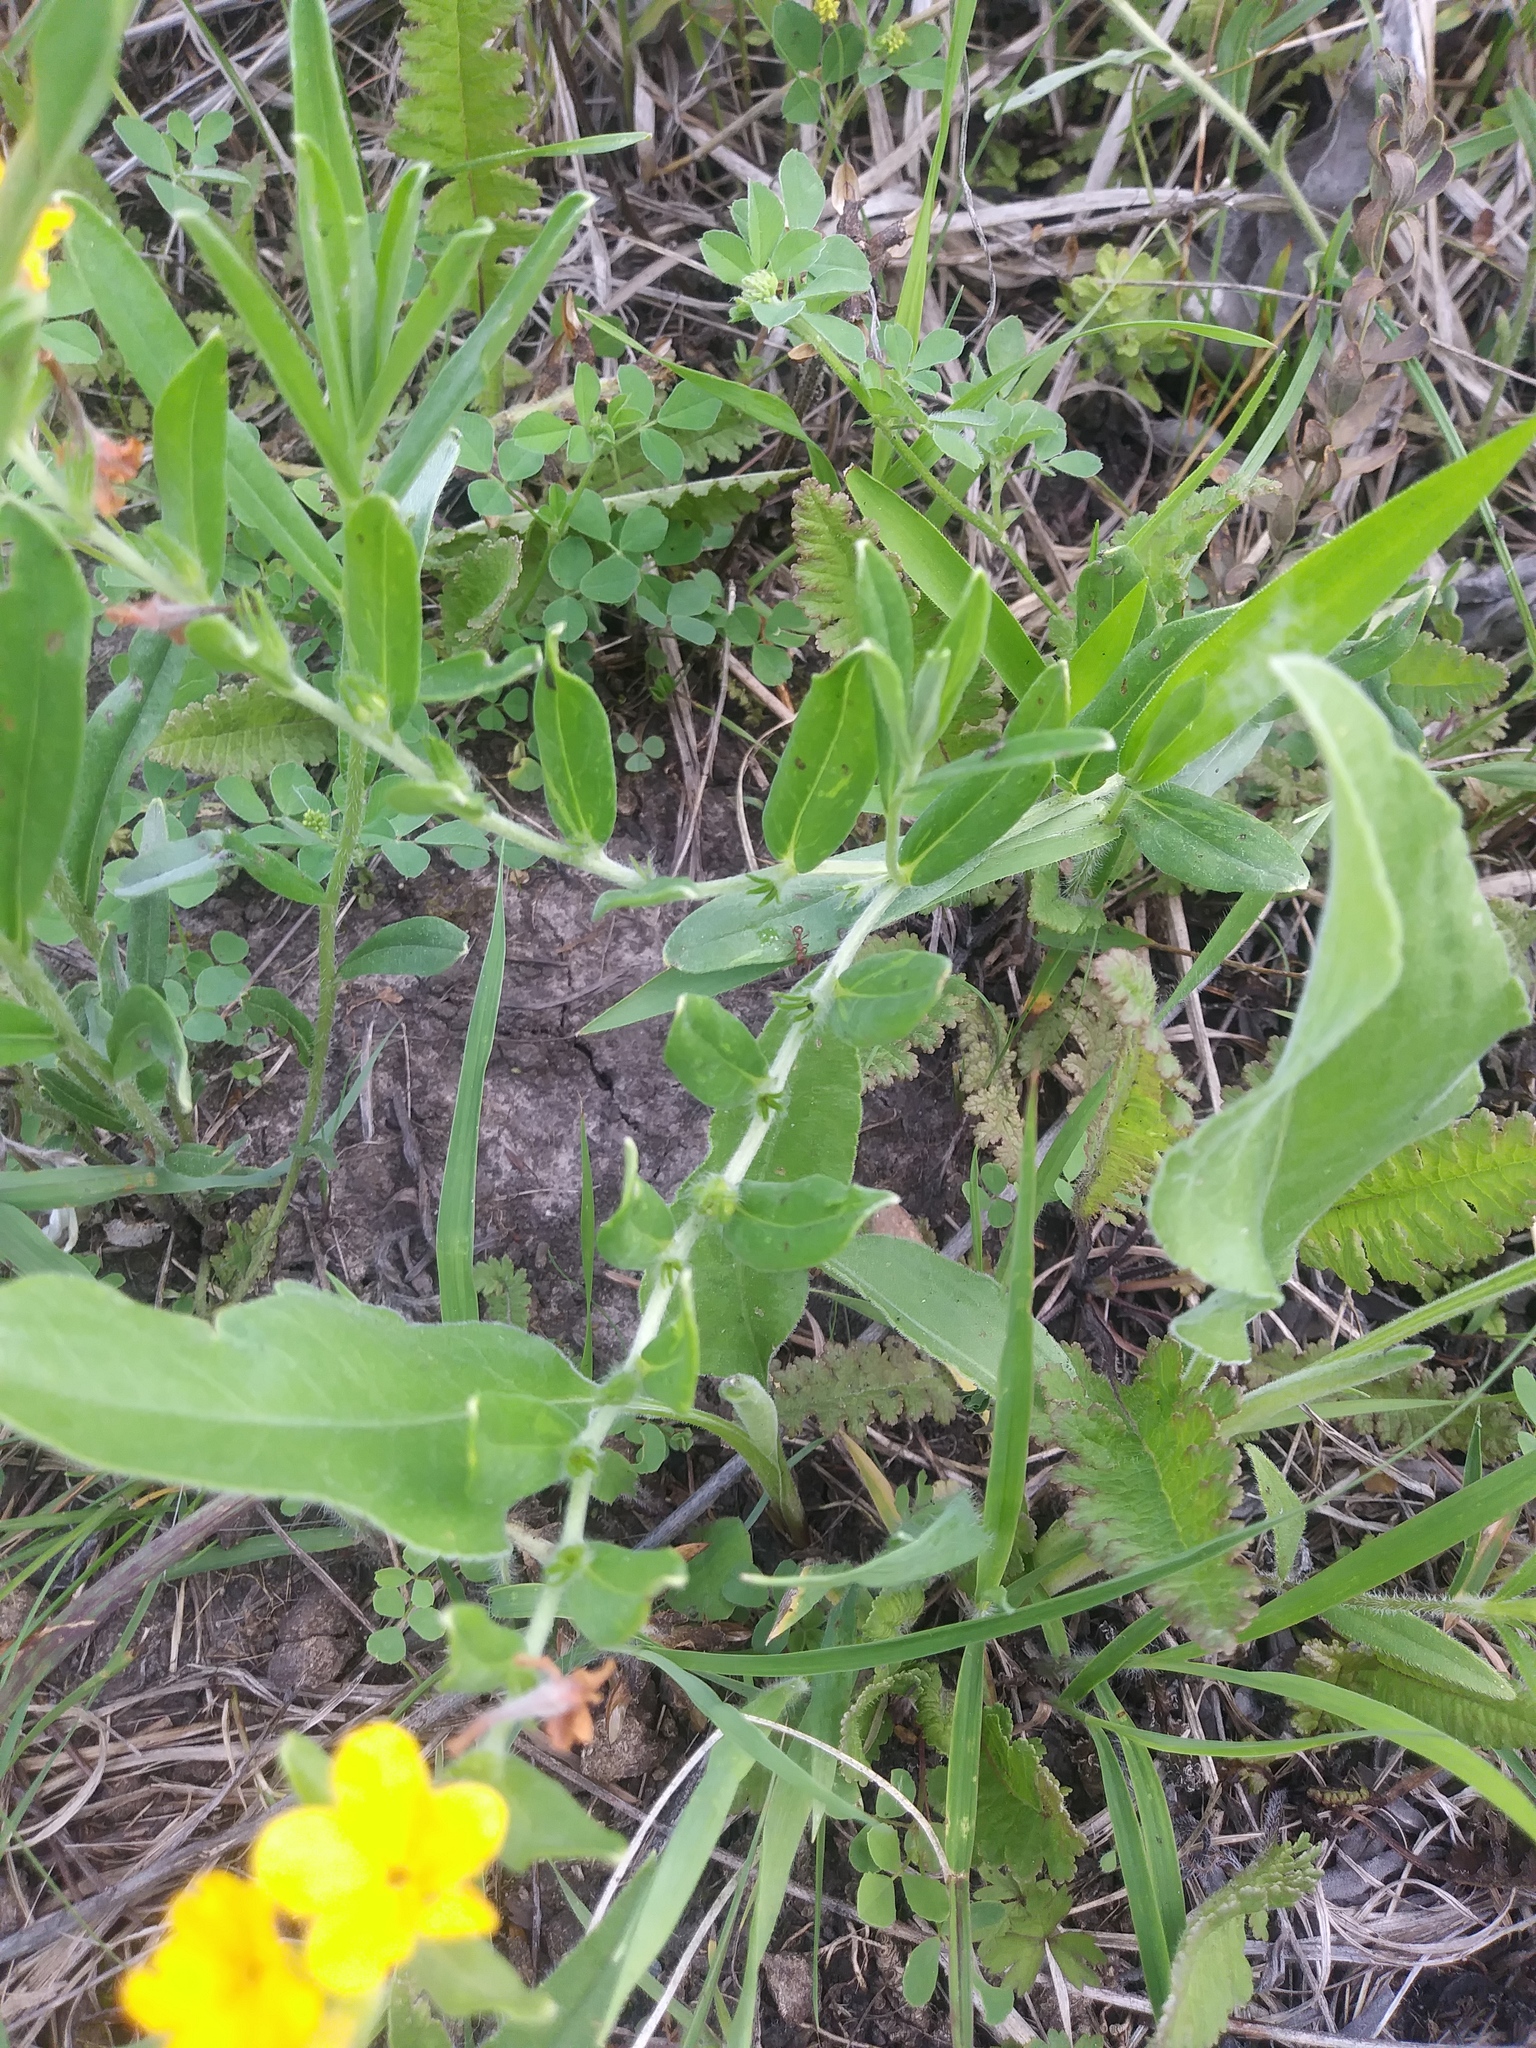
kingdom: Plantae
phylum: Tracheophyta
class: Magnoliopsida
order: Boraginales
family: Boraginaceae
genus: Lithospermum
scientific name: Lithospermum canescens
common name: Hoary puccoon
